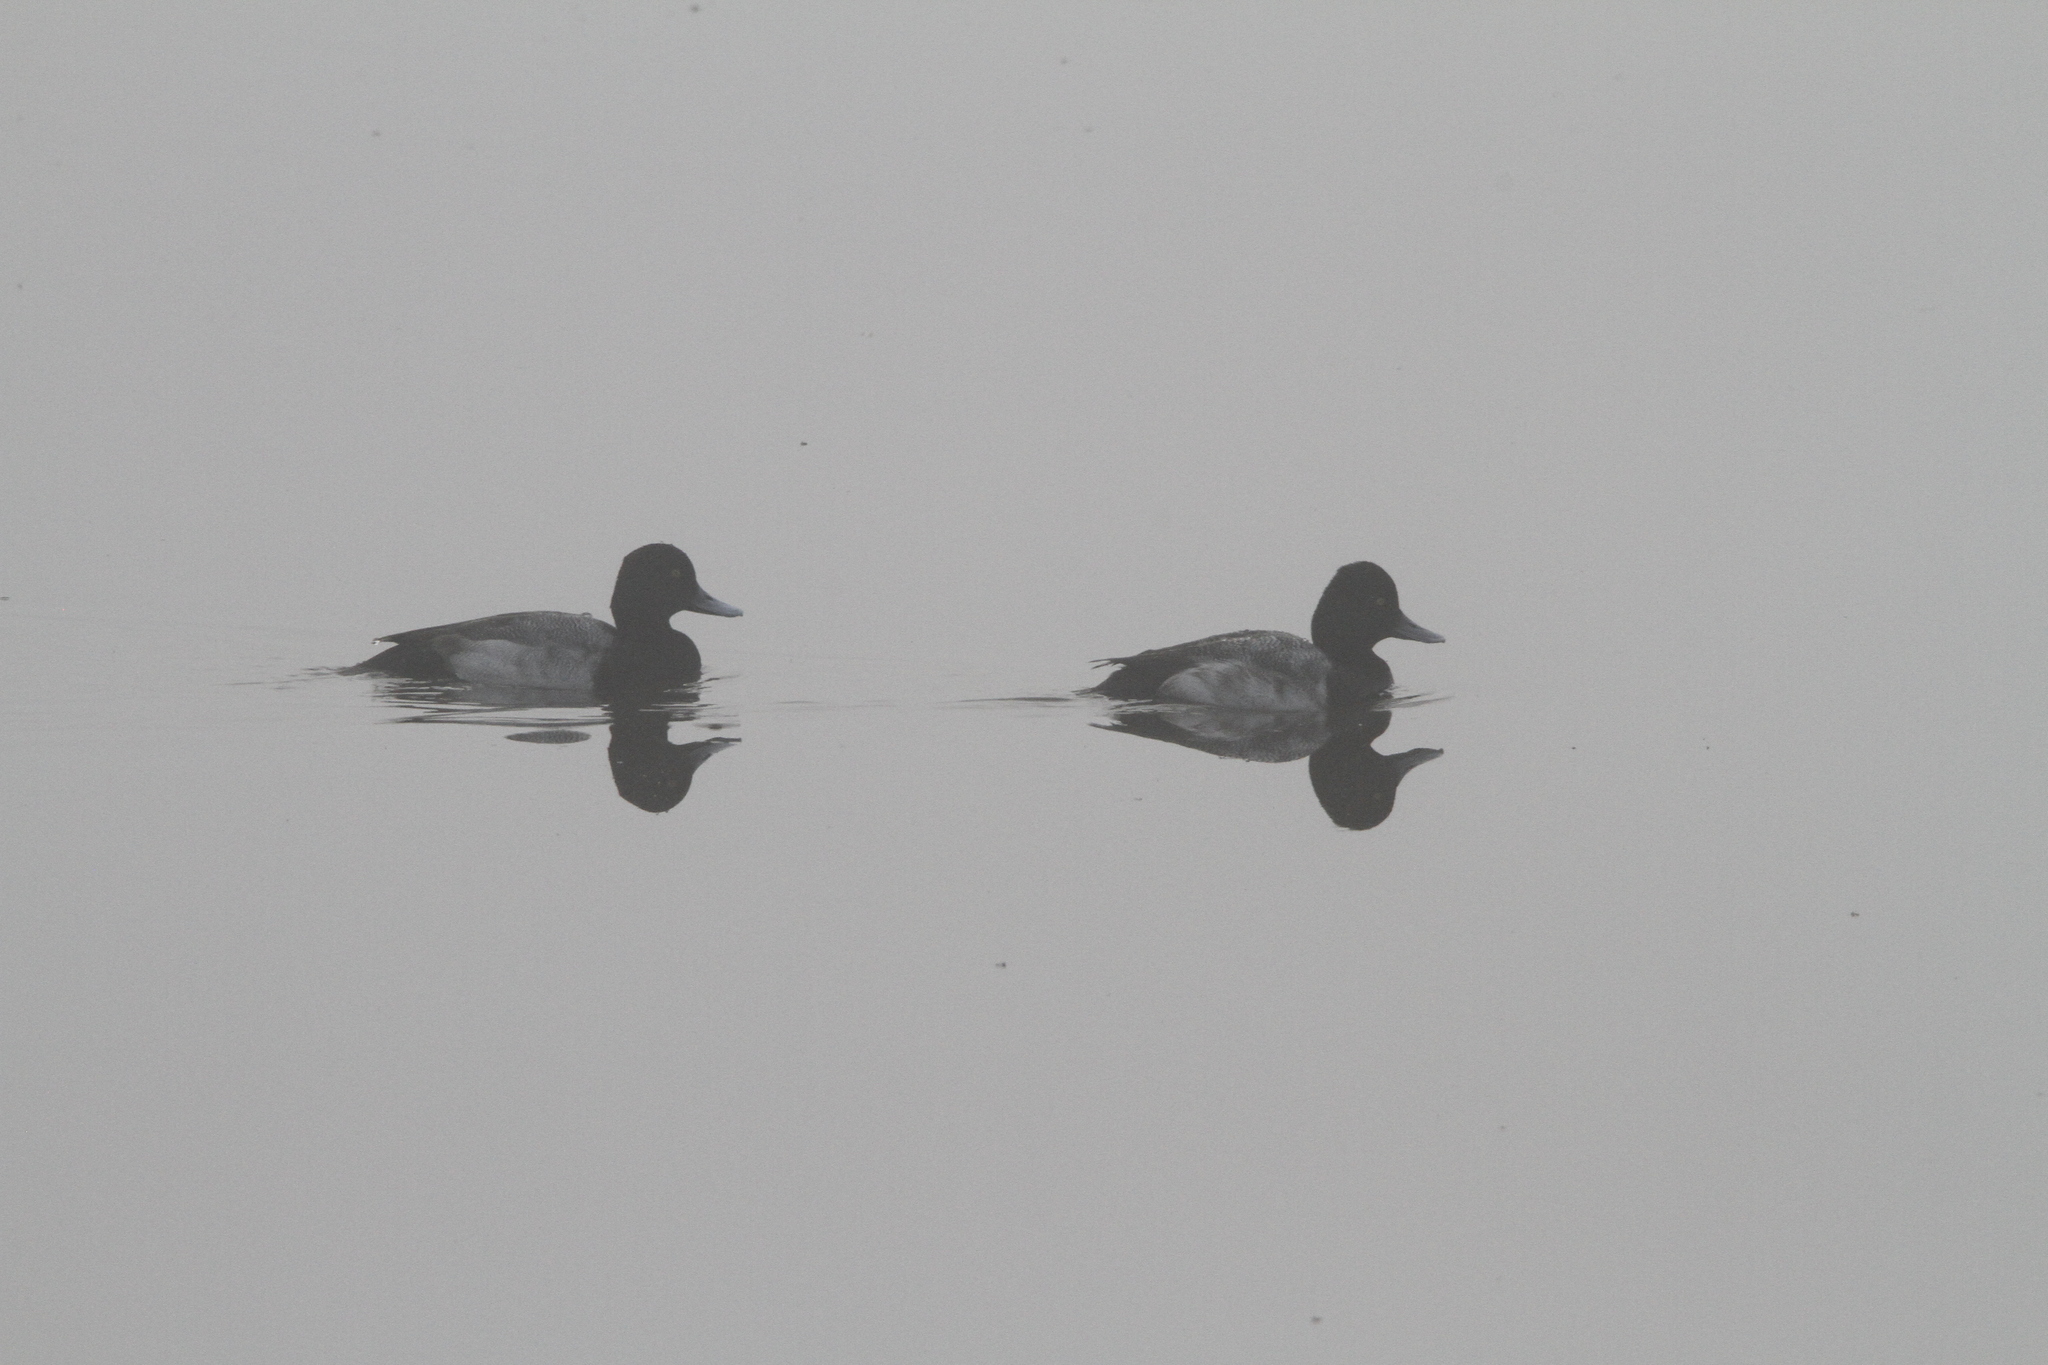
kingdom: Animalia
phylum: Chordata
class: Aves
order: Anseriformes
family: Anatidae
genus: Aythya
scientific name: Aythya affinis
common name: Lesser scaup
